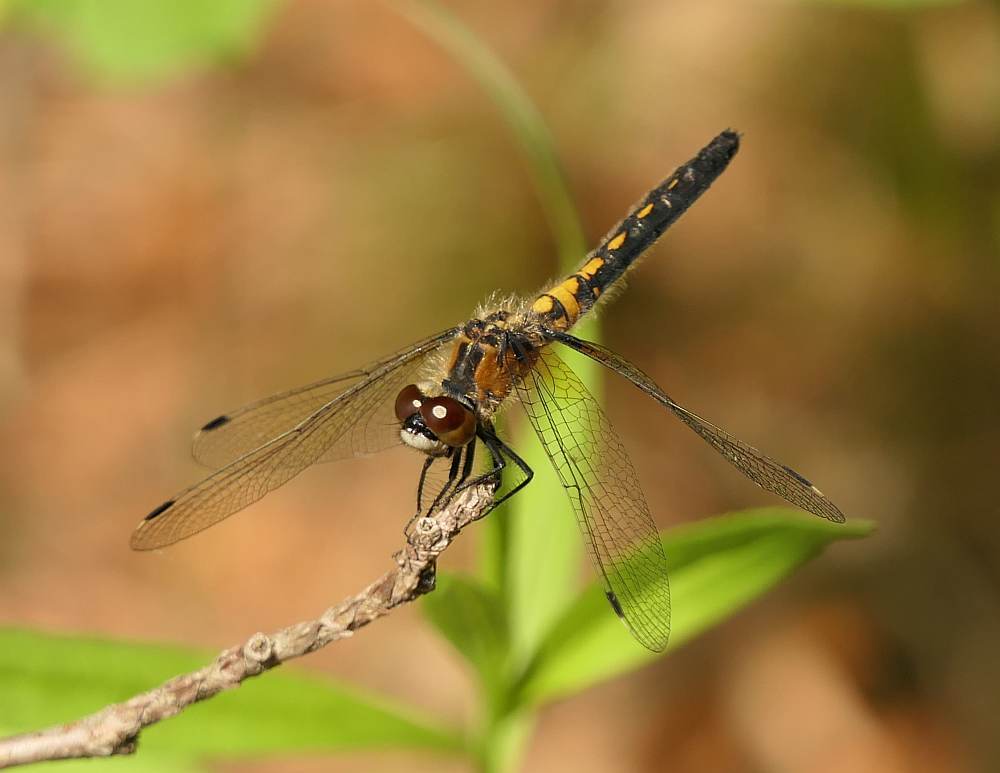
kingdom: Animalia
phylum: Arthropoda
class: Insecta
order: Odonata
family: Libellulidae
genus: Leucorrhinia
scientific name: Leucorrhinia frigida
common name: Frosted whiteface
